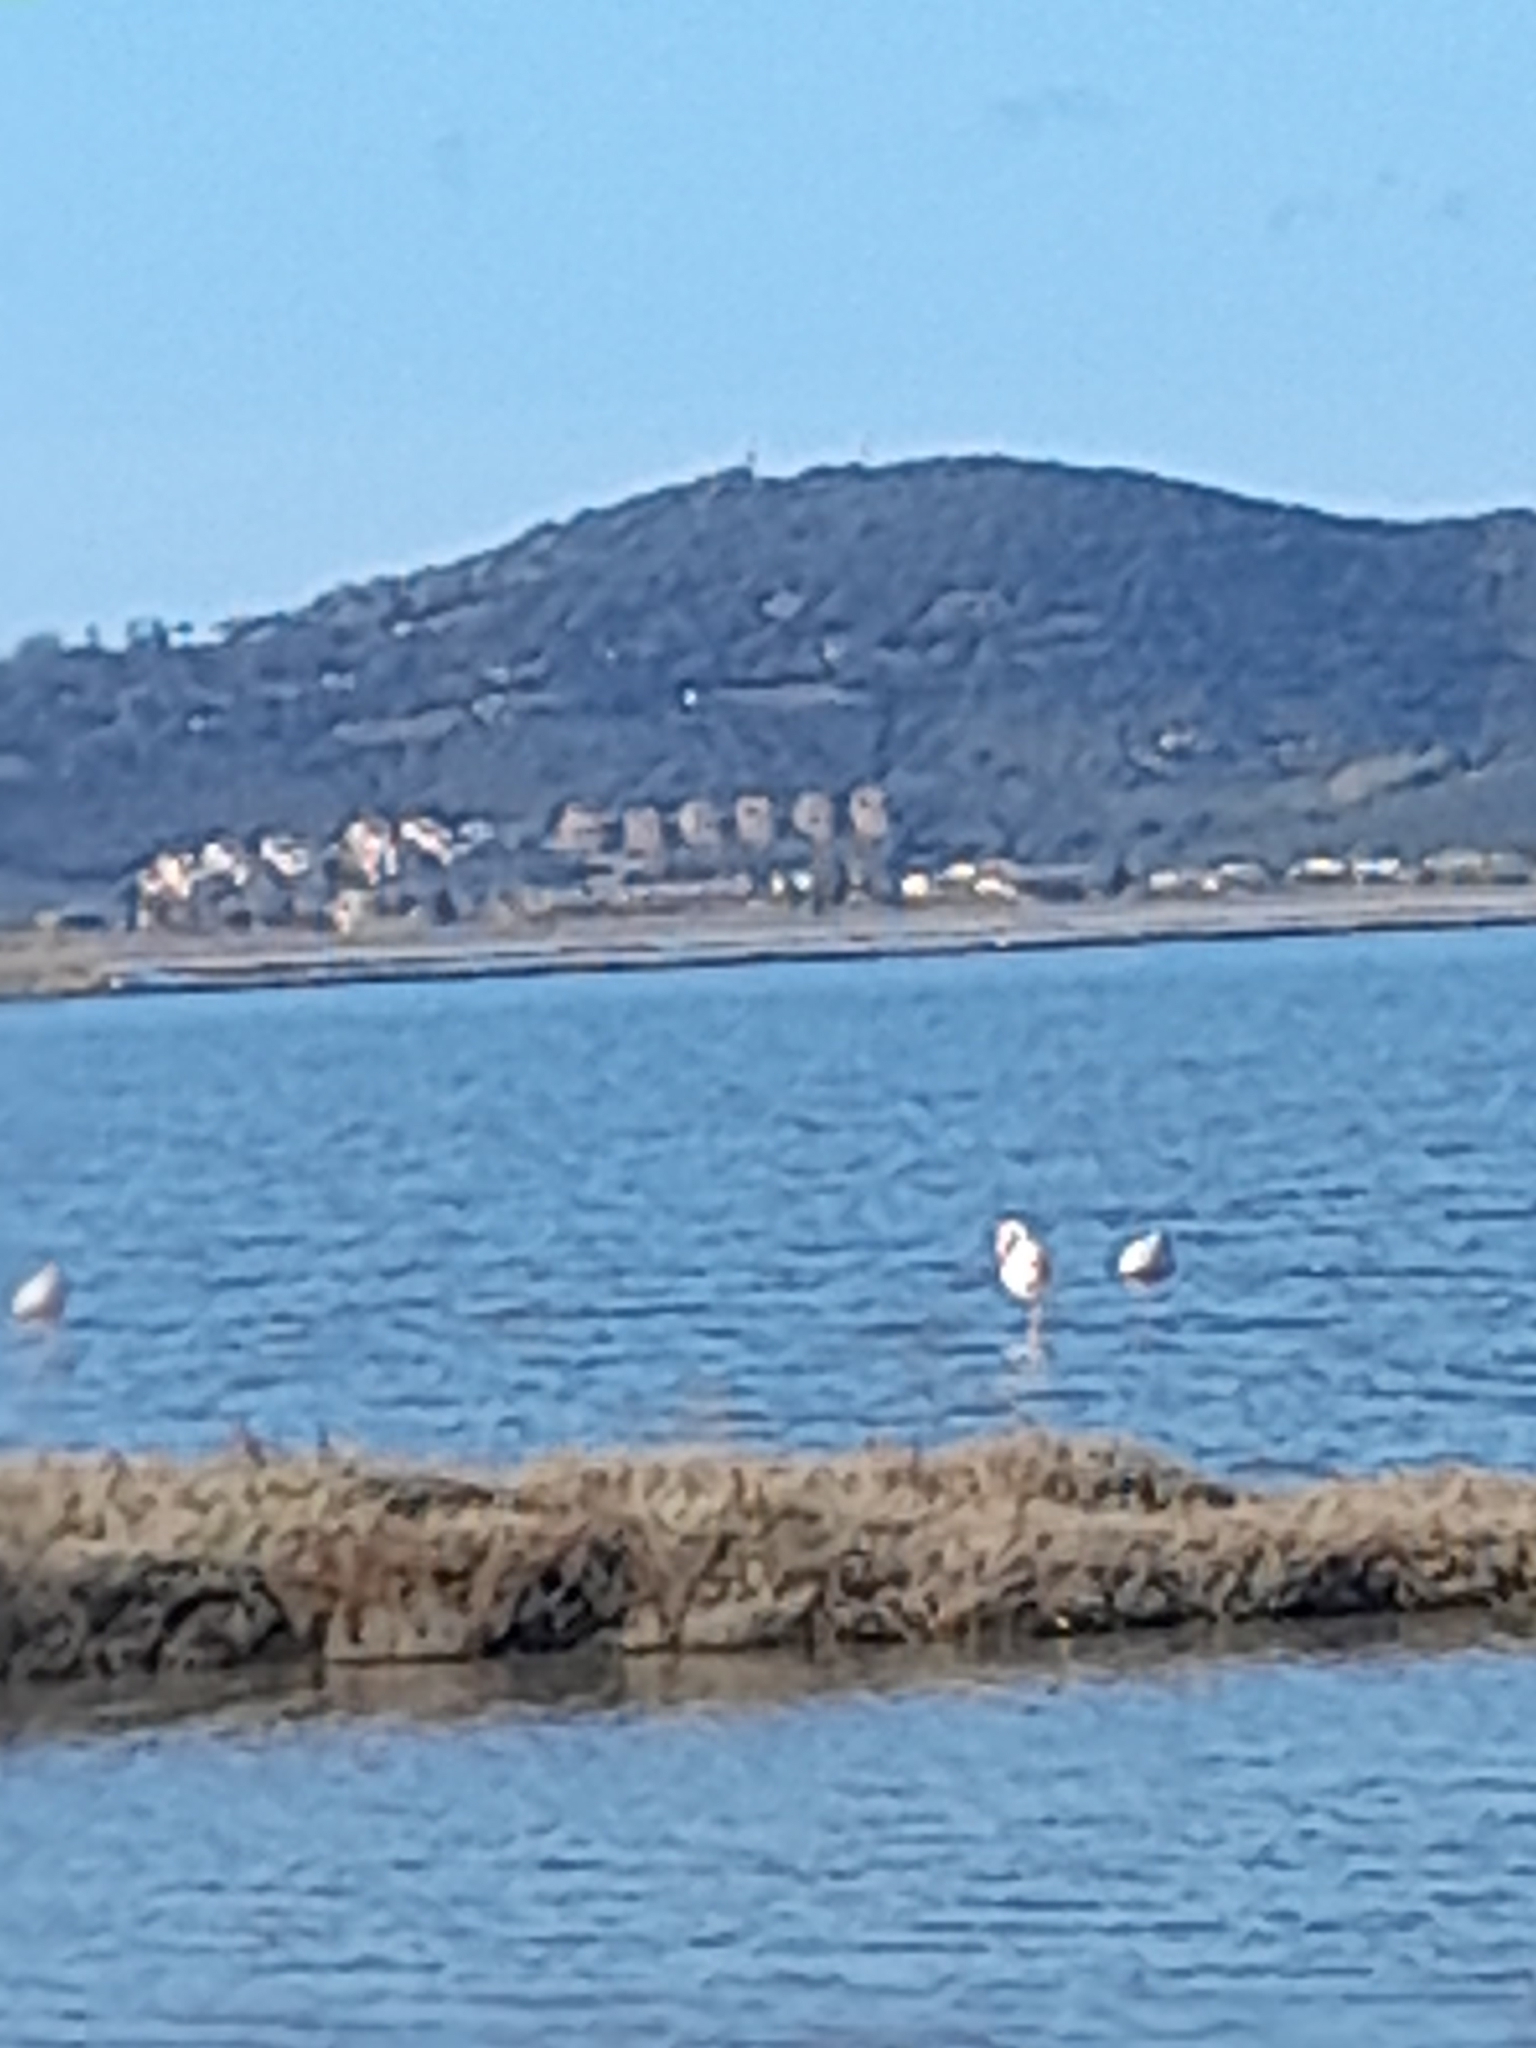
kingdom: Animalia
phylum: Chordata
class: Aves
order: Phoenicopteriformes
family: Phoenicopteridae
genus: Phoenicopterus
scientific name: Phoenicopterus roseus
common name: Greater flamingo
